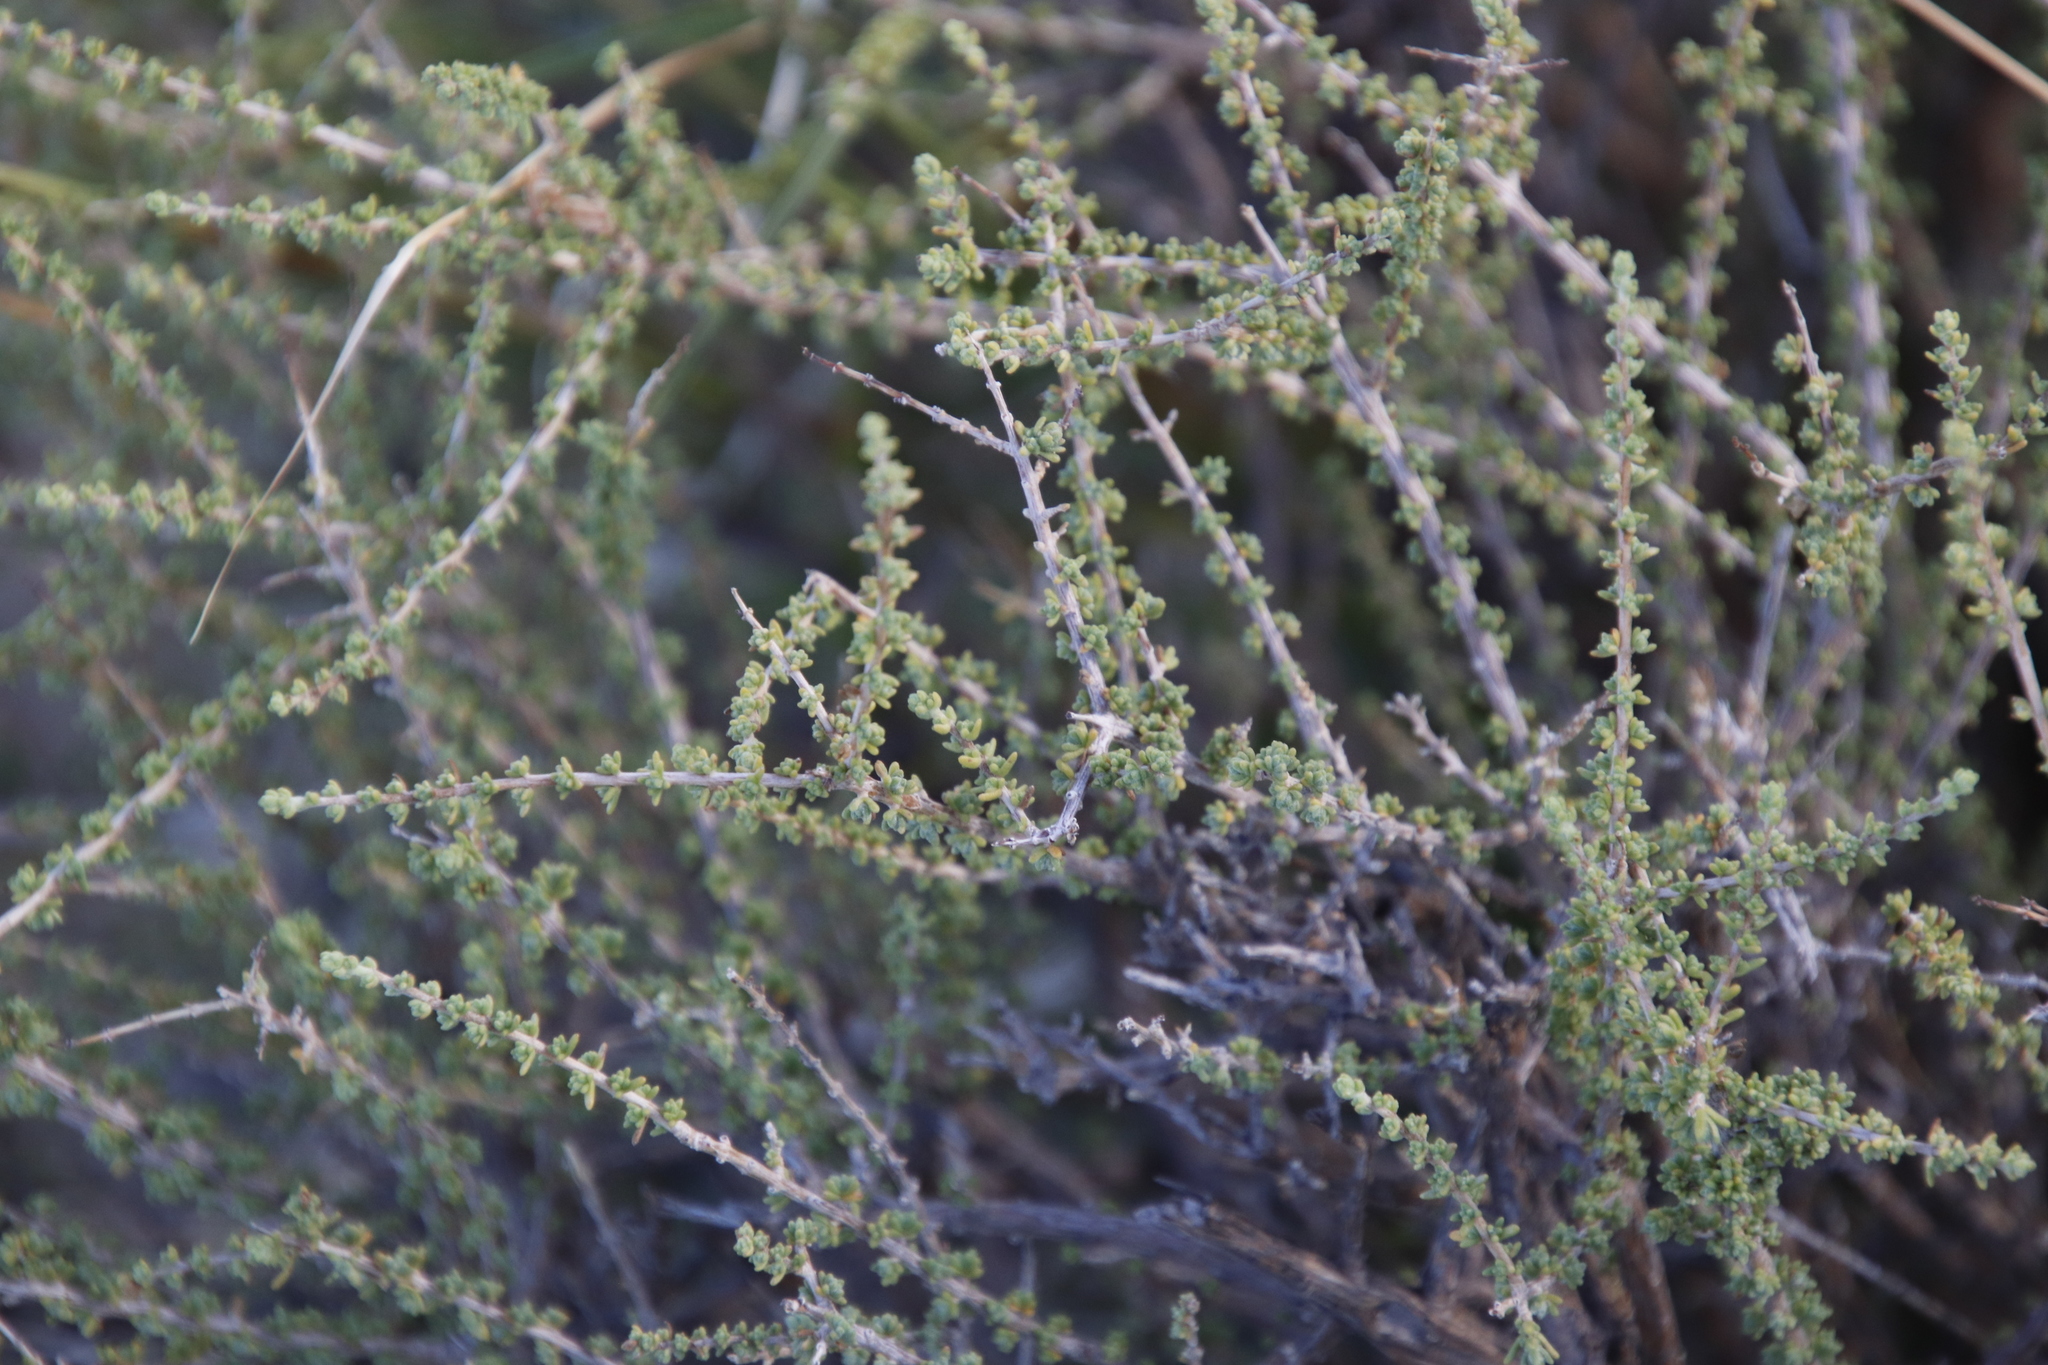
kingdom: Plantae
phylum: Tracheophyta
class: Magnoliopsida
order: Asterales
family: Asteraceae
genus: Eriocephalus
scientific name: Eriocephalus ericoides
